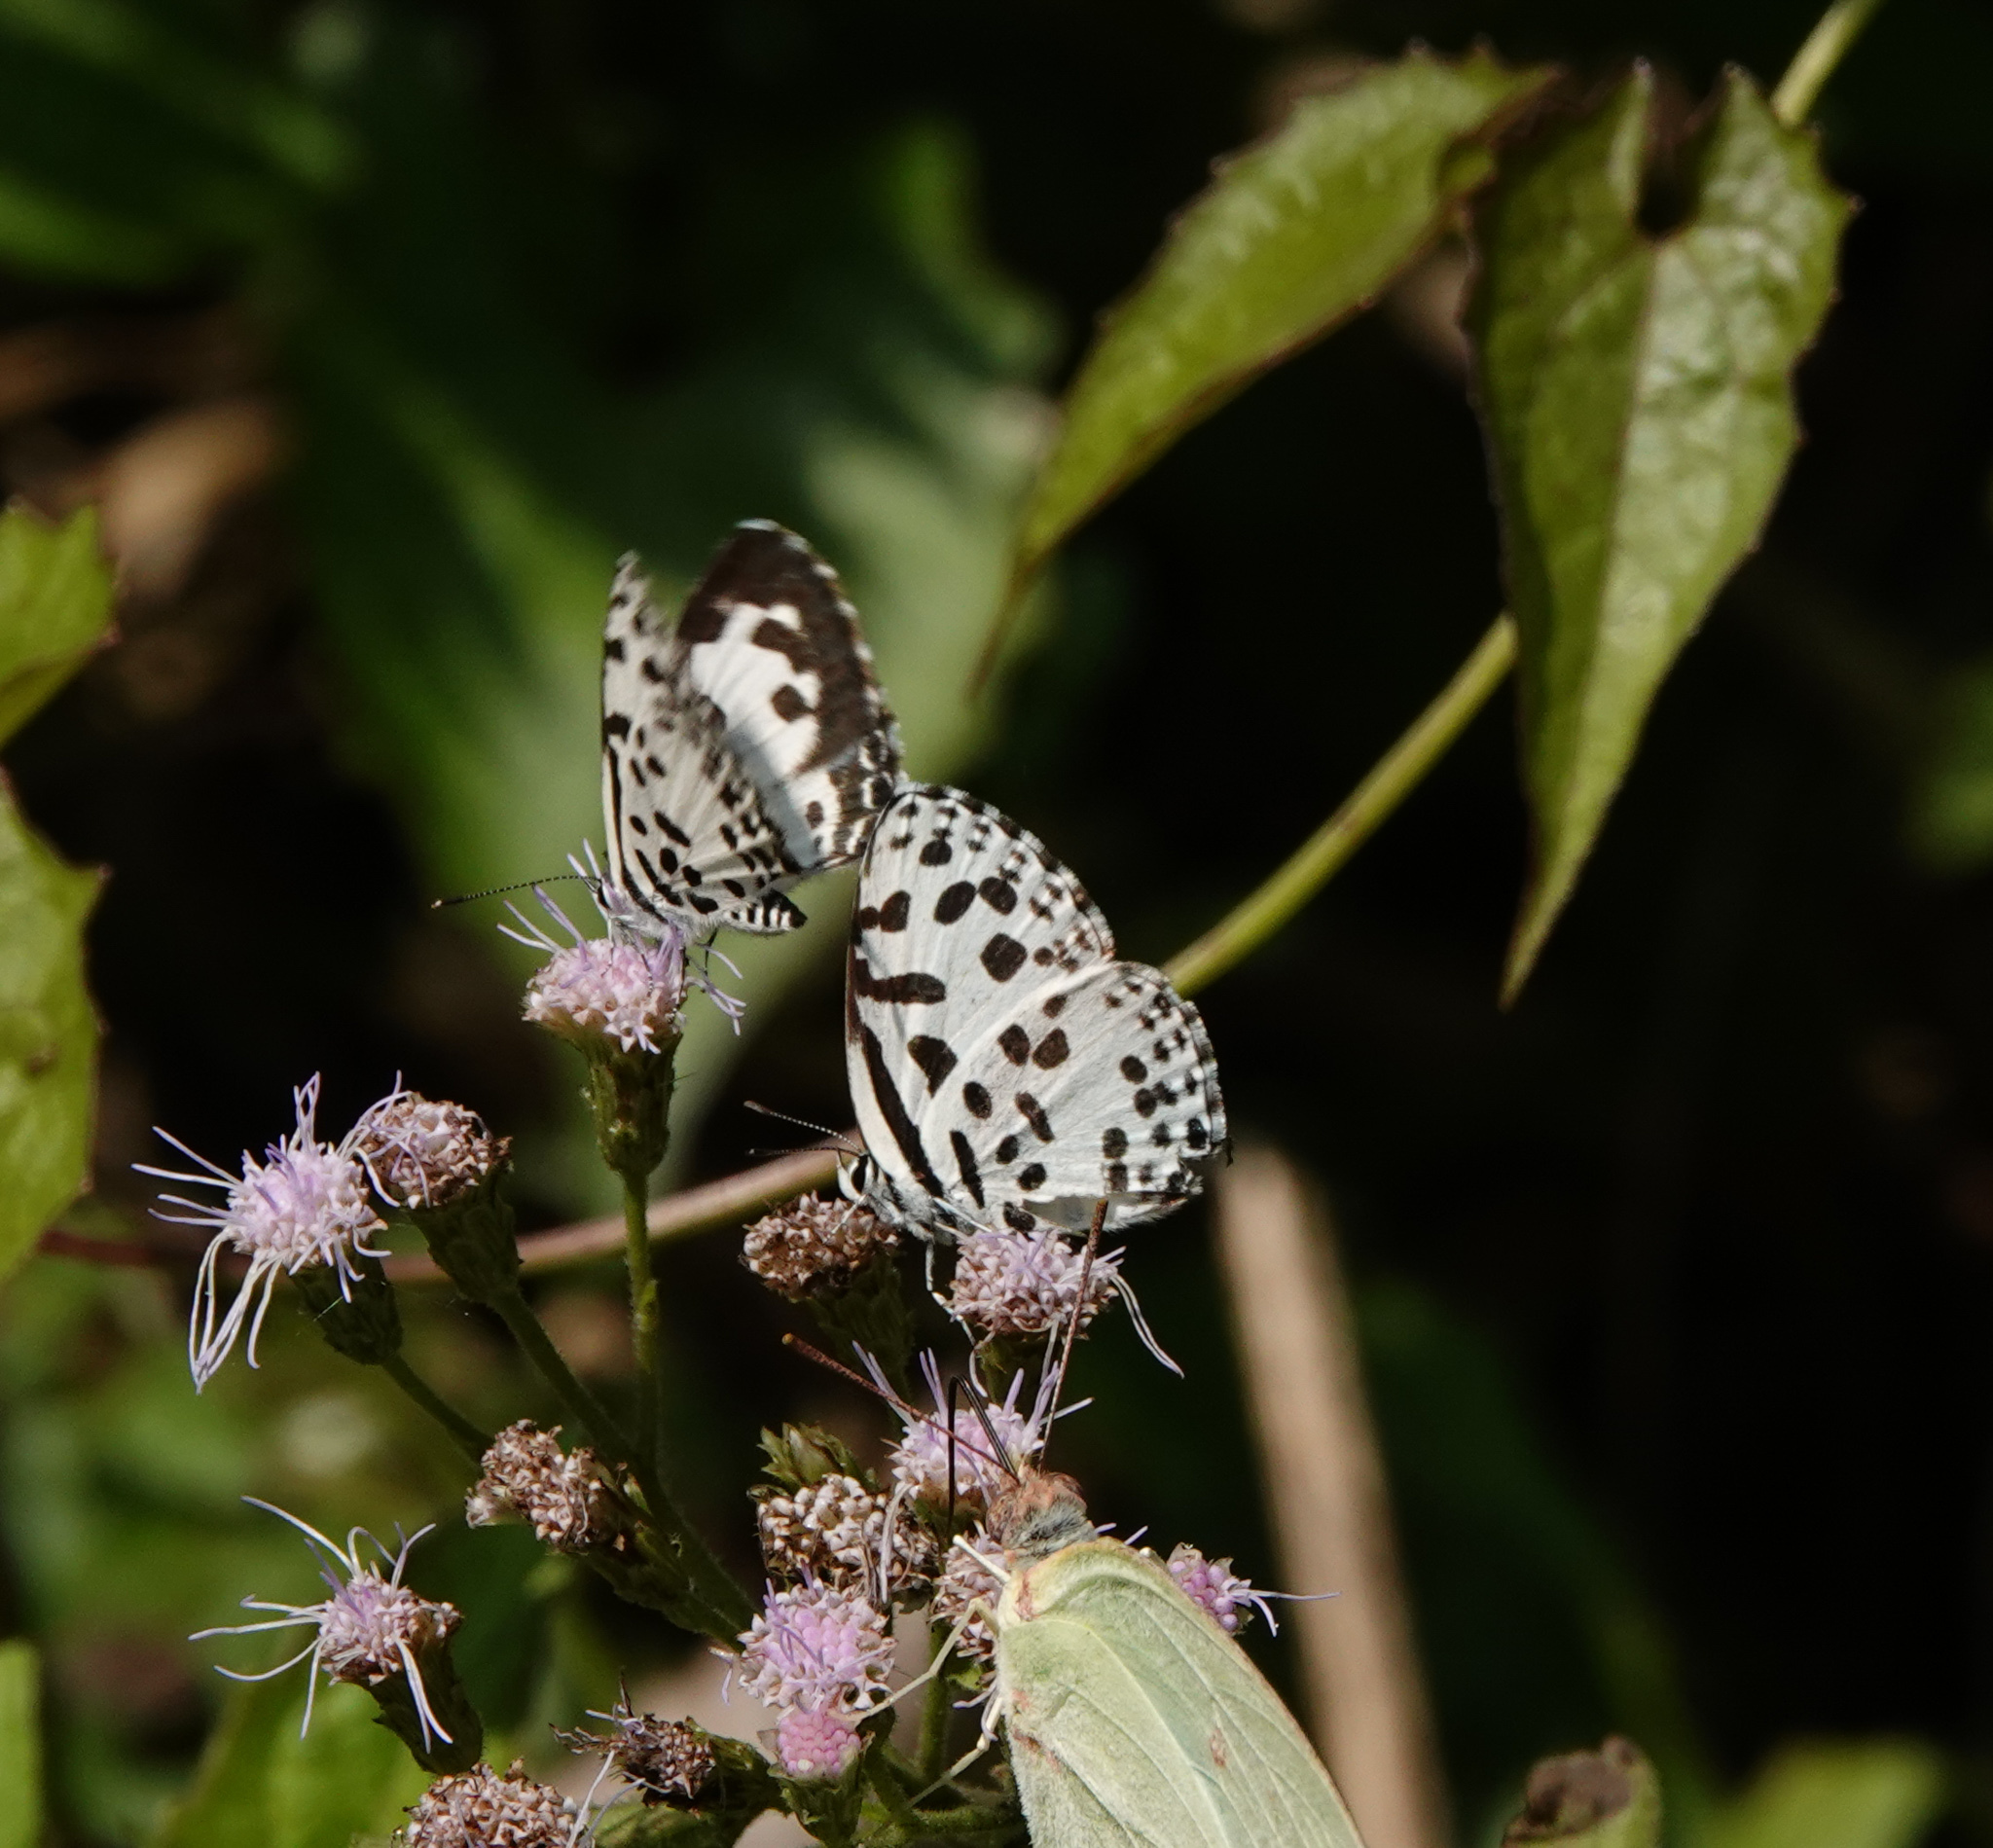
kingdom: Animalia
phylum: Arthropoda
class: Insecta
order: Lepidoptera
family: Lycaenidae
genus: Castalius
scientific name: Castalius rosimon
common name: Common pierrot
